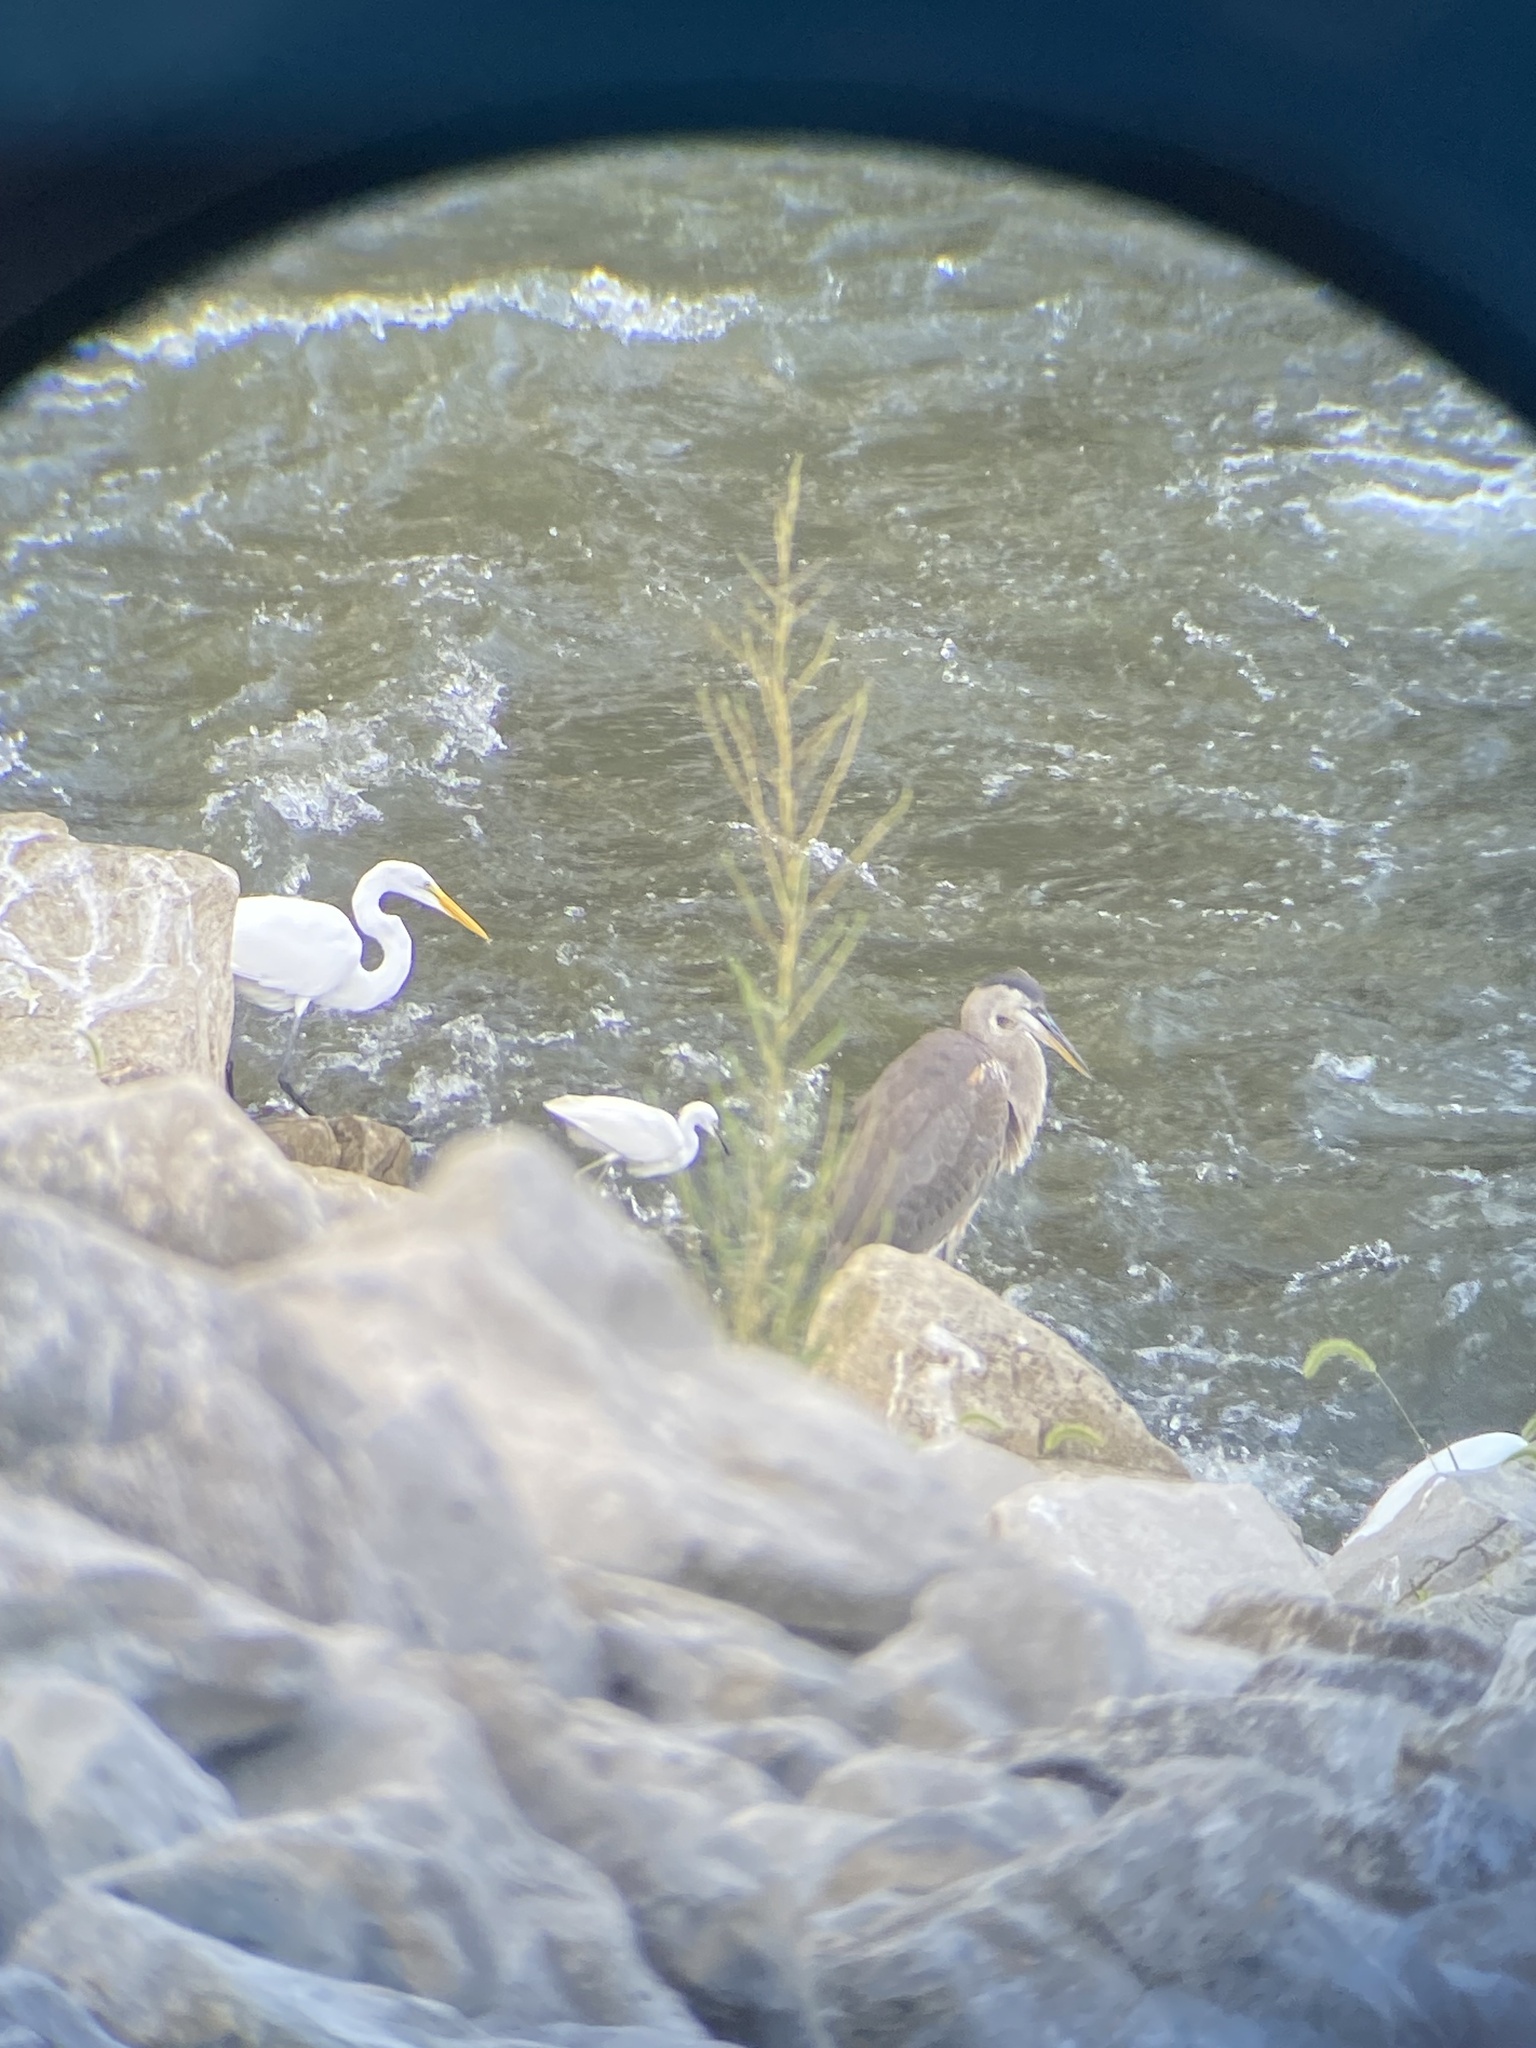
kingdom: Animalia
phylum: Chordata
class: Aves
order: Pelecaniformes
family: Ardeidae
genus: Ardea
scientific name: Ardea herodias
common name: Great blue heron
